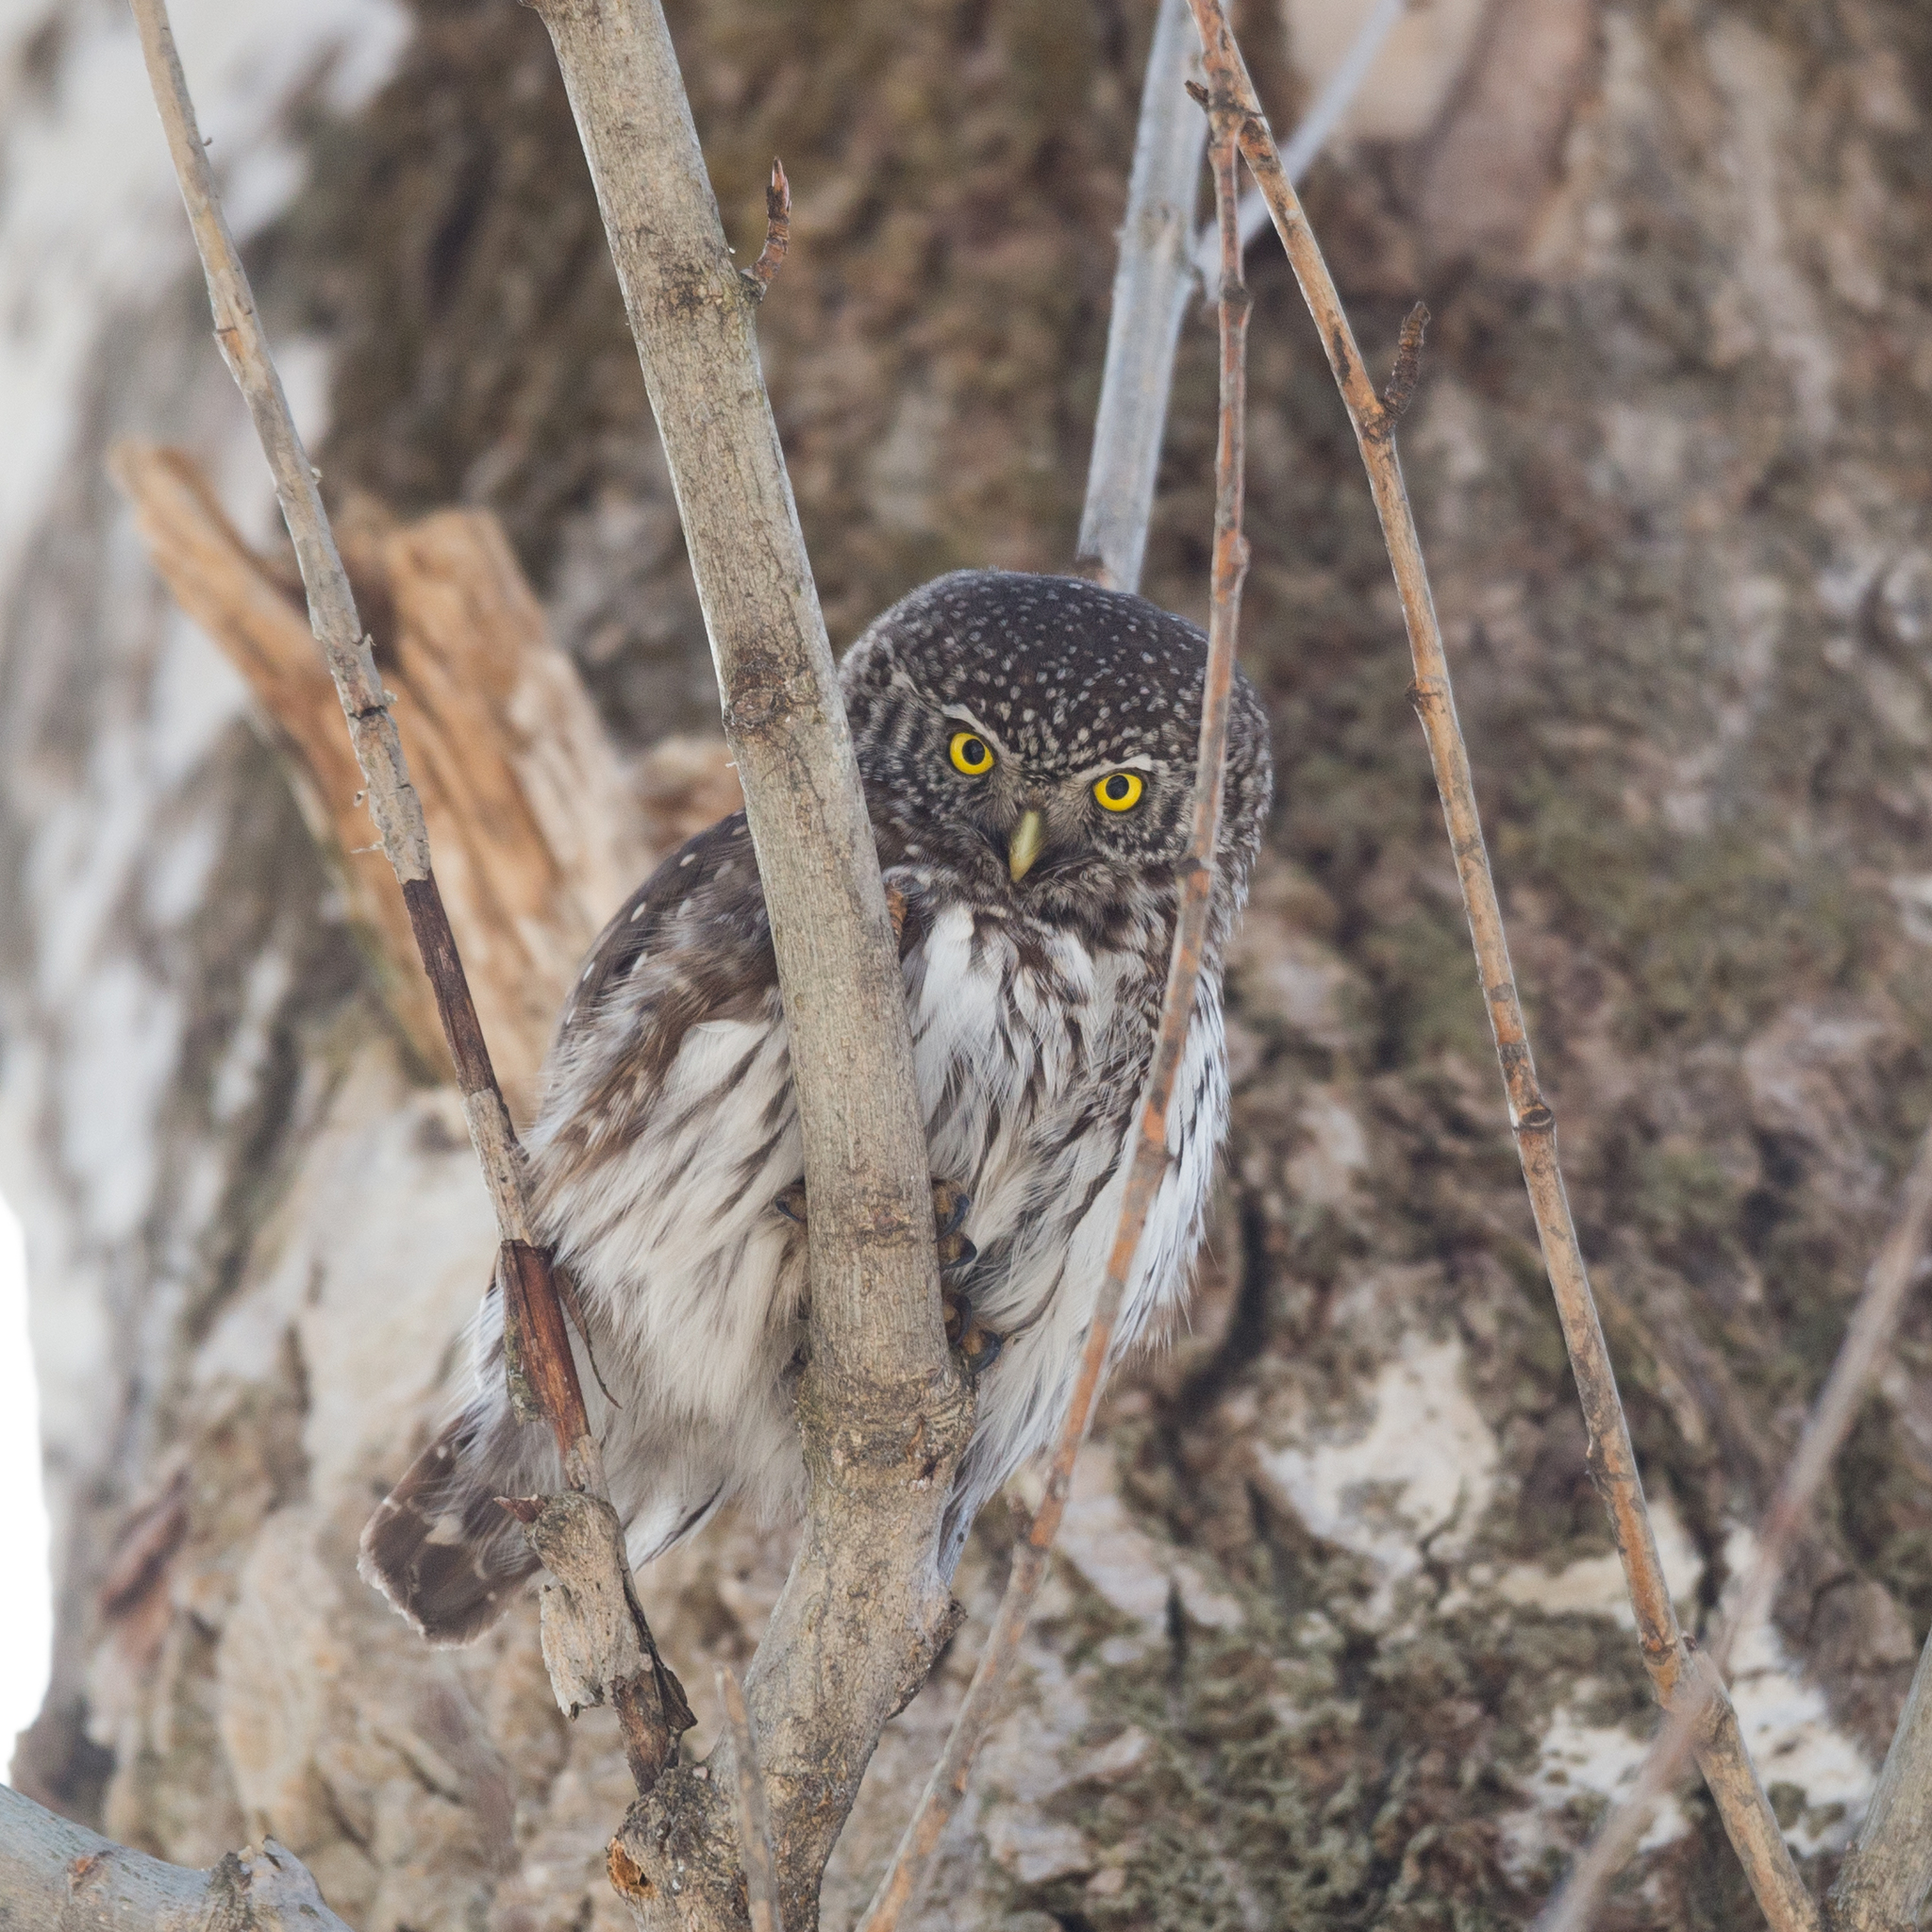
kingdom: Animalia
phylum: Chordata
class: Aves
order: Strigiformes
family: Strigidae
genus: Glaucidium
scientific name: Glaucidium passerinum
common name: Eurasian pygmy owl
